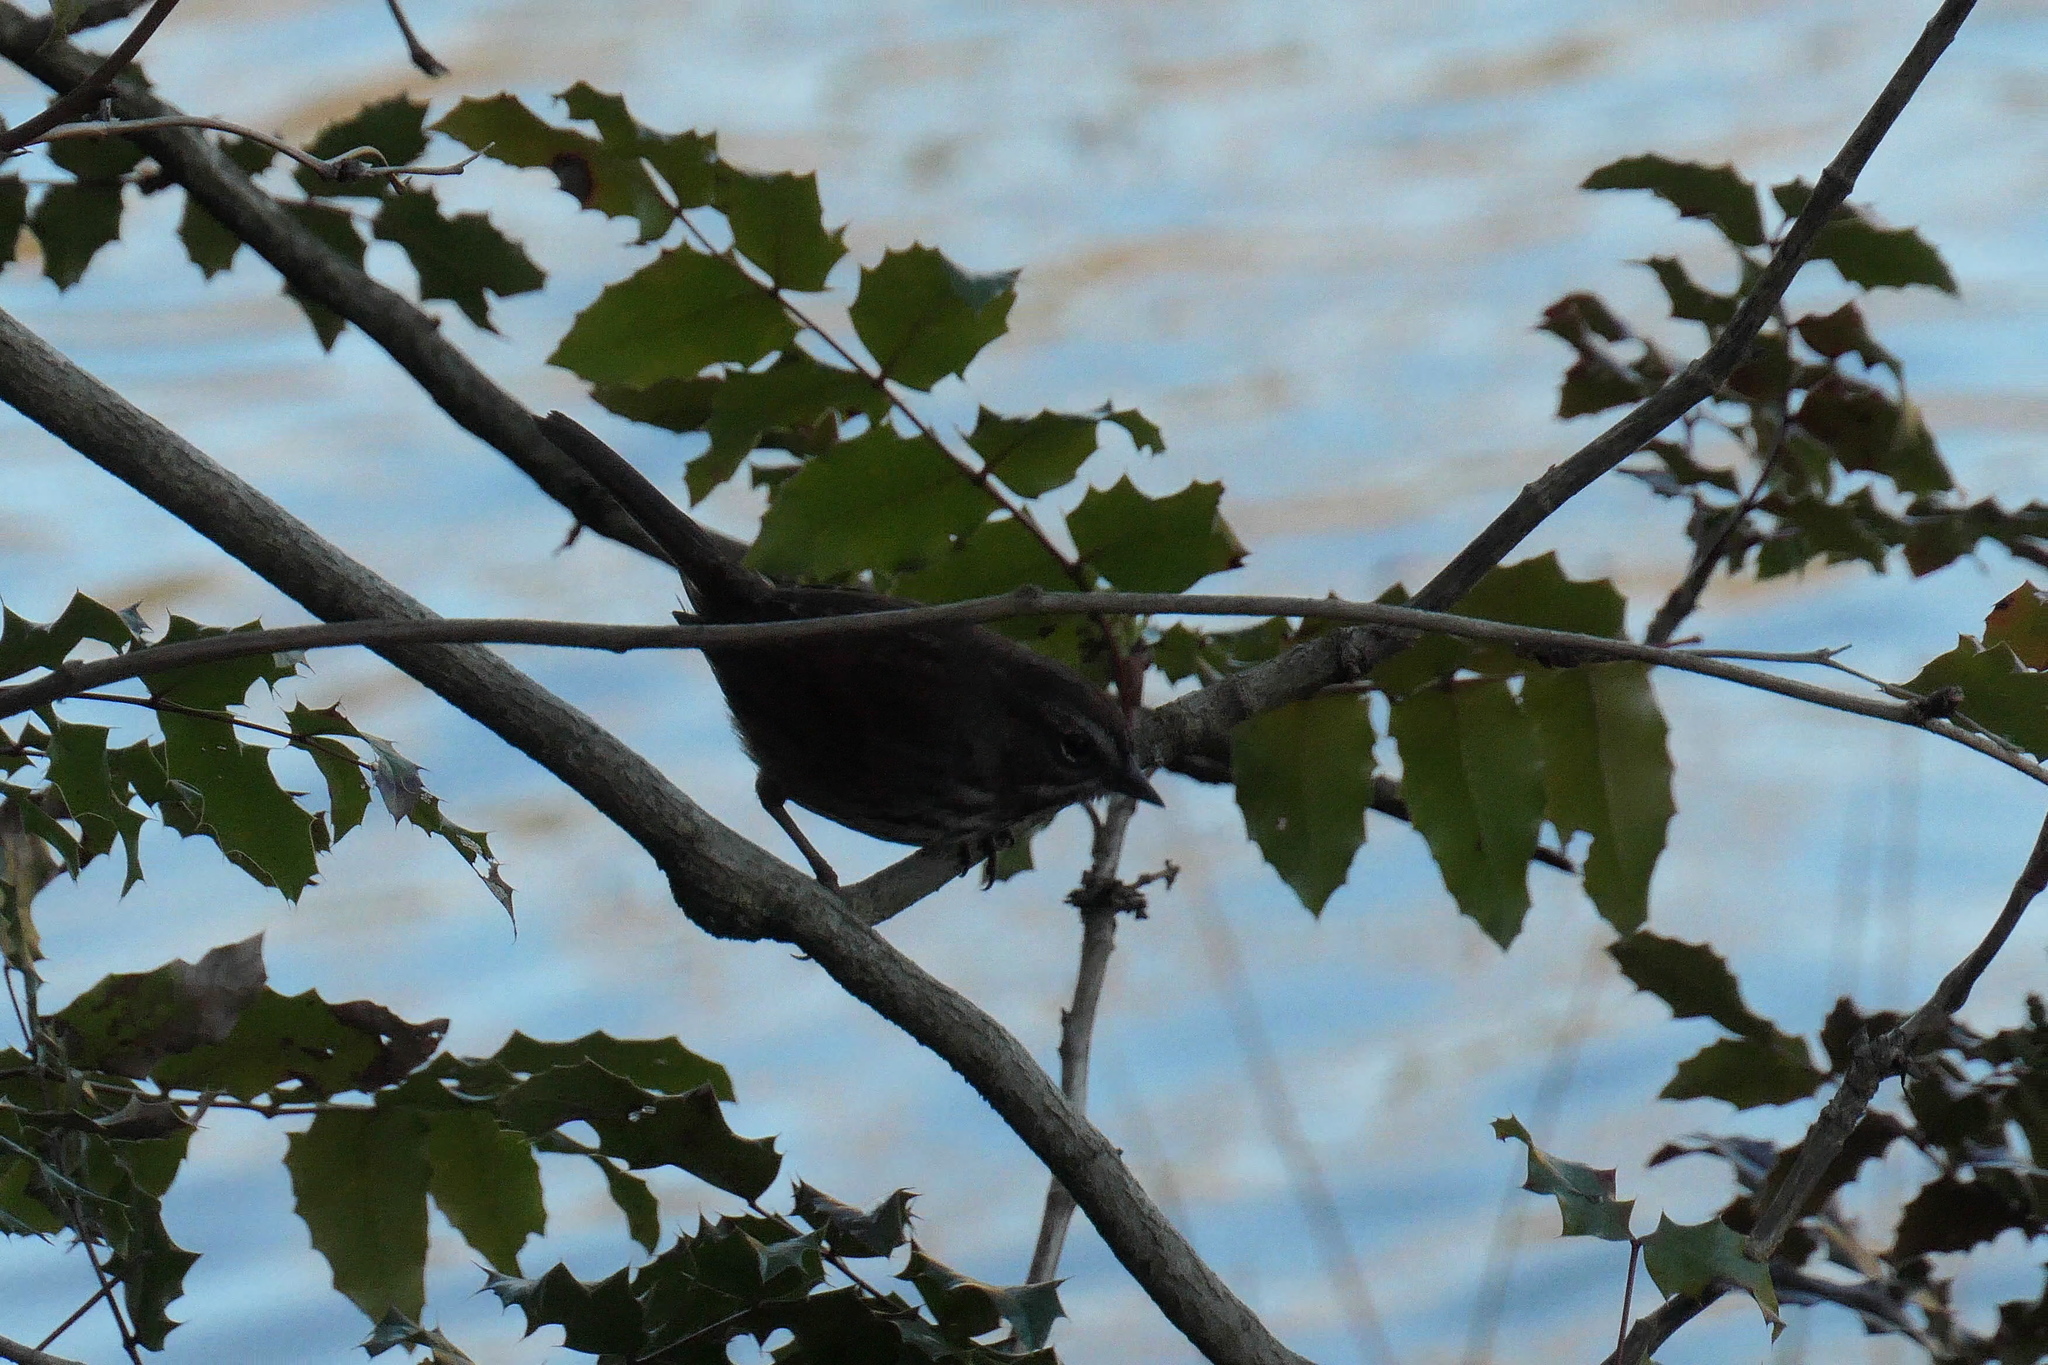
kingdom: Animalia
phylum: Chordata
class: Aves
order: Passeriformes
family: Passerellidae
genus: Melospiza
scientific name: Melospiza melodia
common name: Song sparrow
